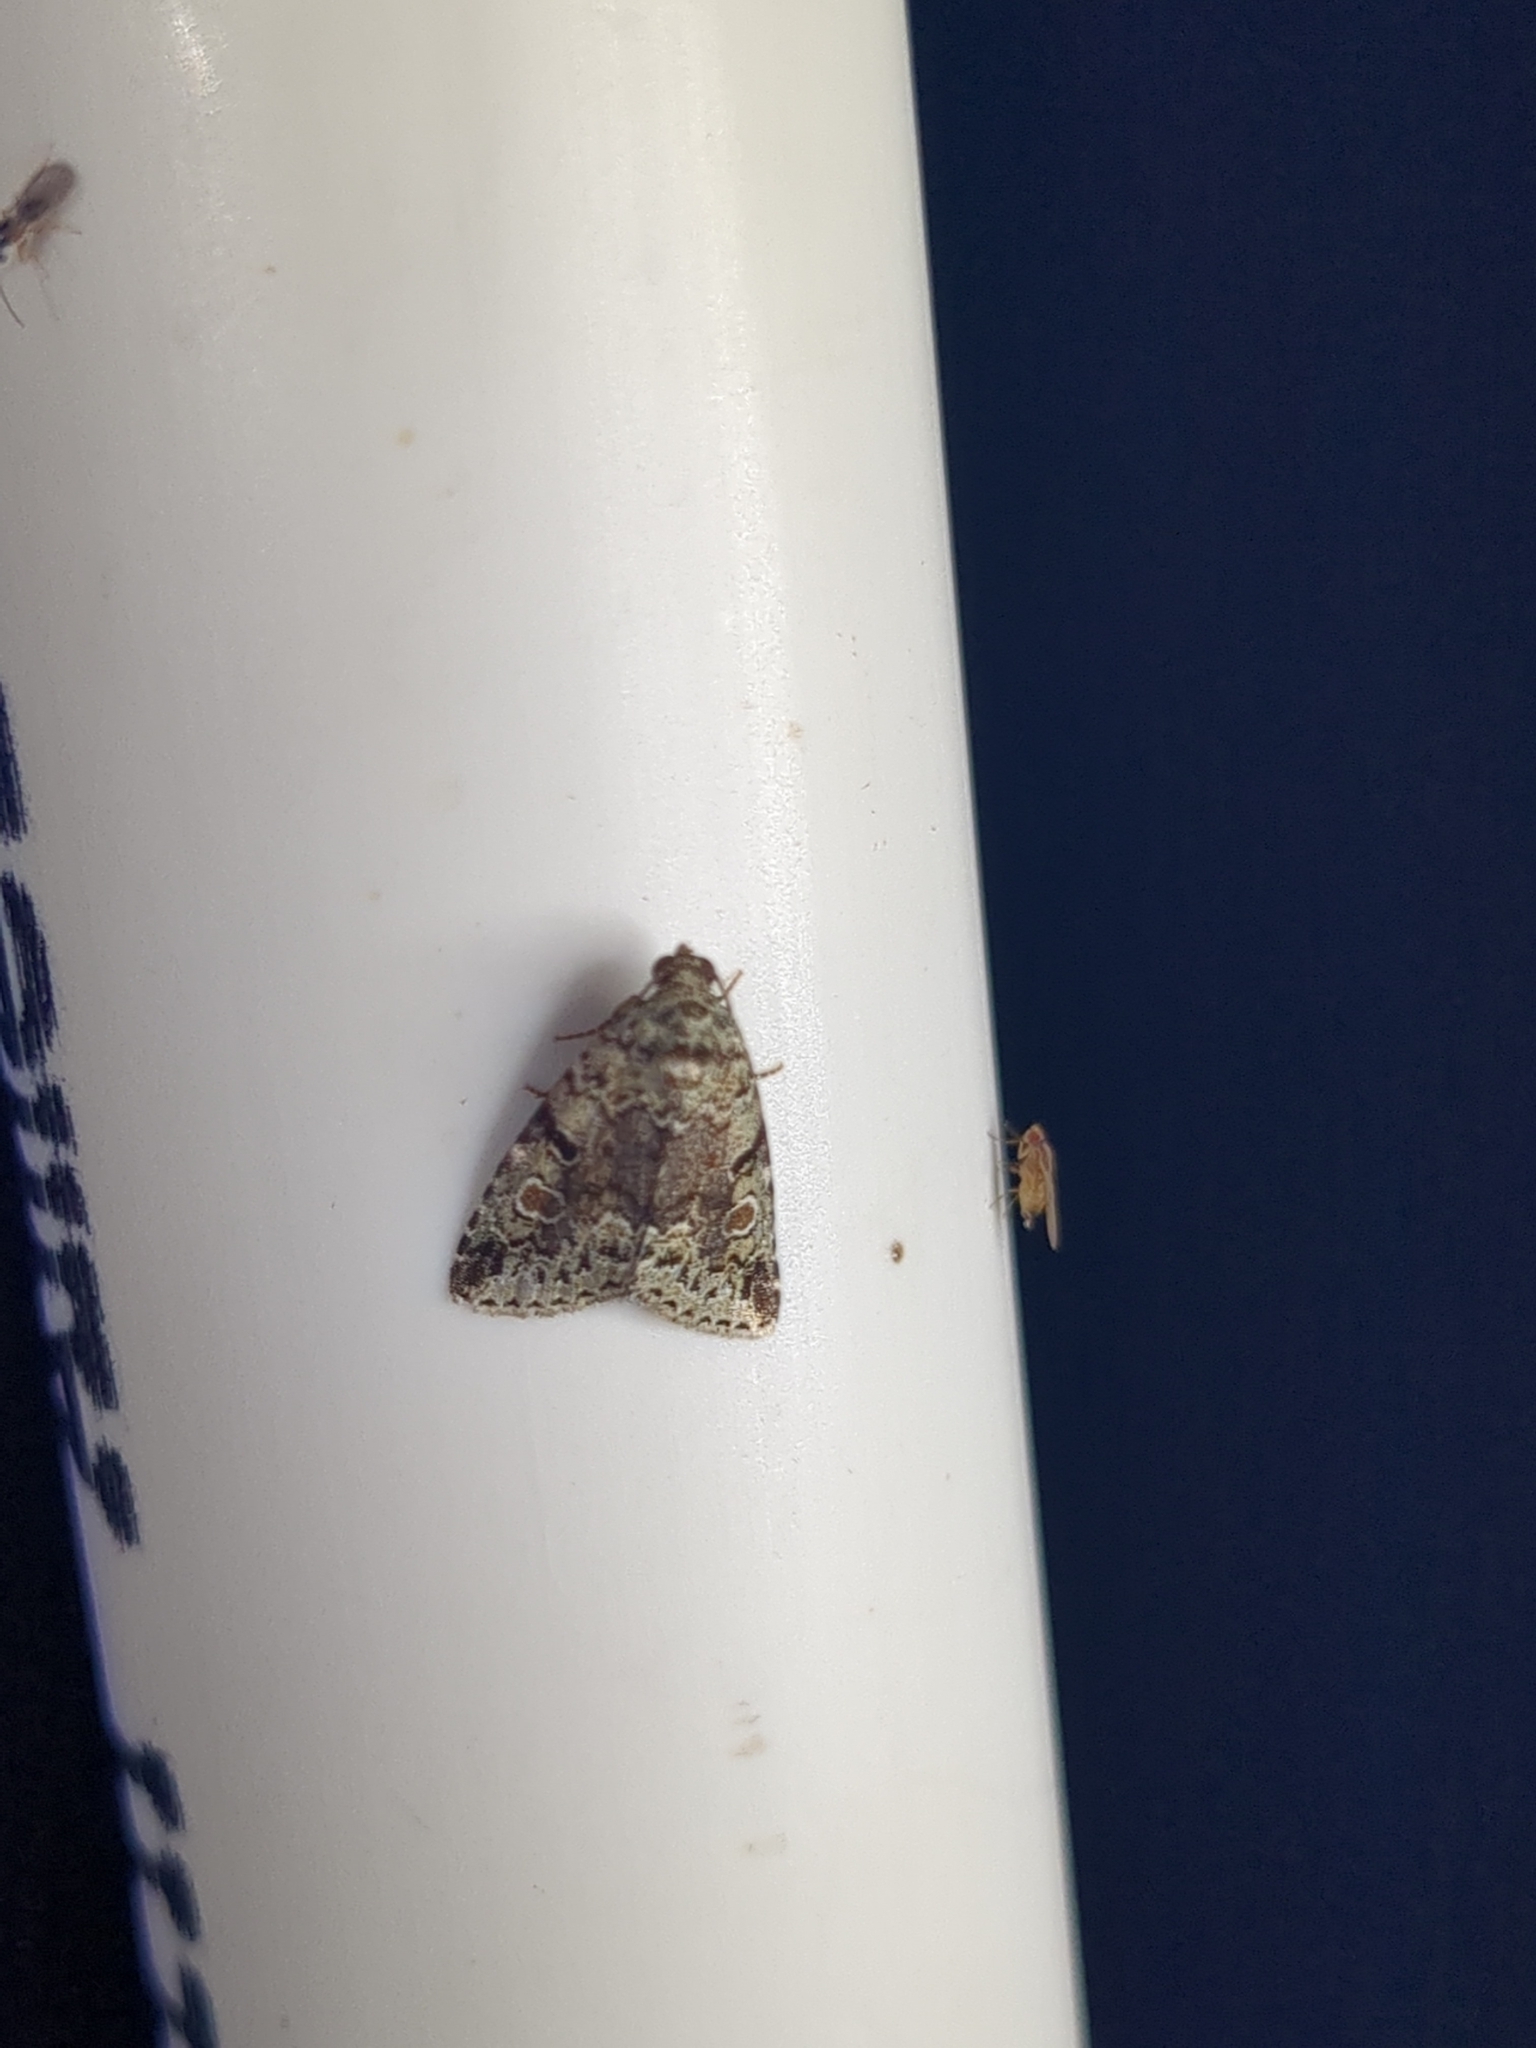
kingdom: Animalia
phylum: Arthropoda
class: Insecta
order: Lepidoptera
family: Noctuidae
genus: Maliattha
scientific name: Maliattha concinnimacula
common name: Red-spotted glyph
